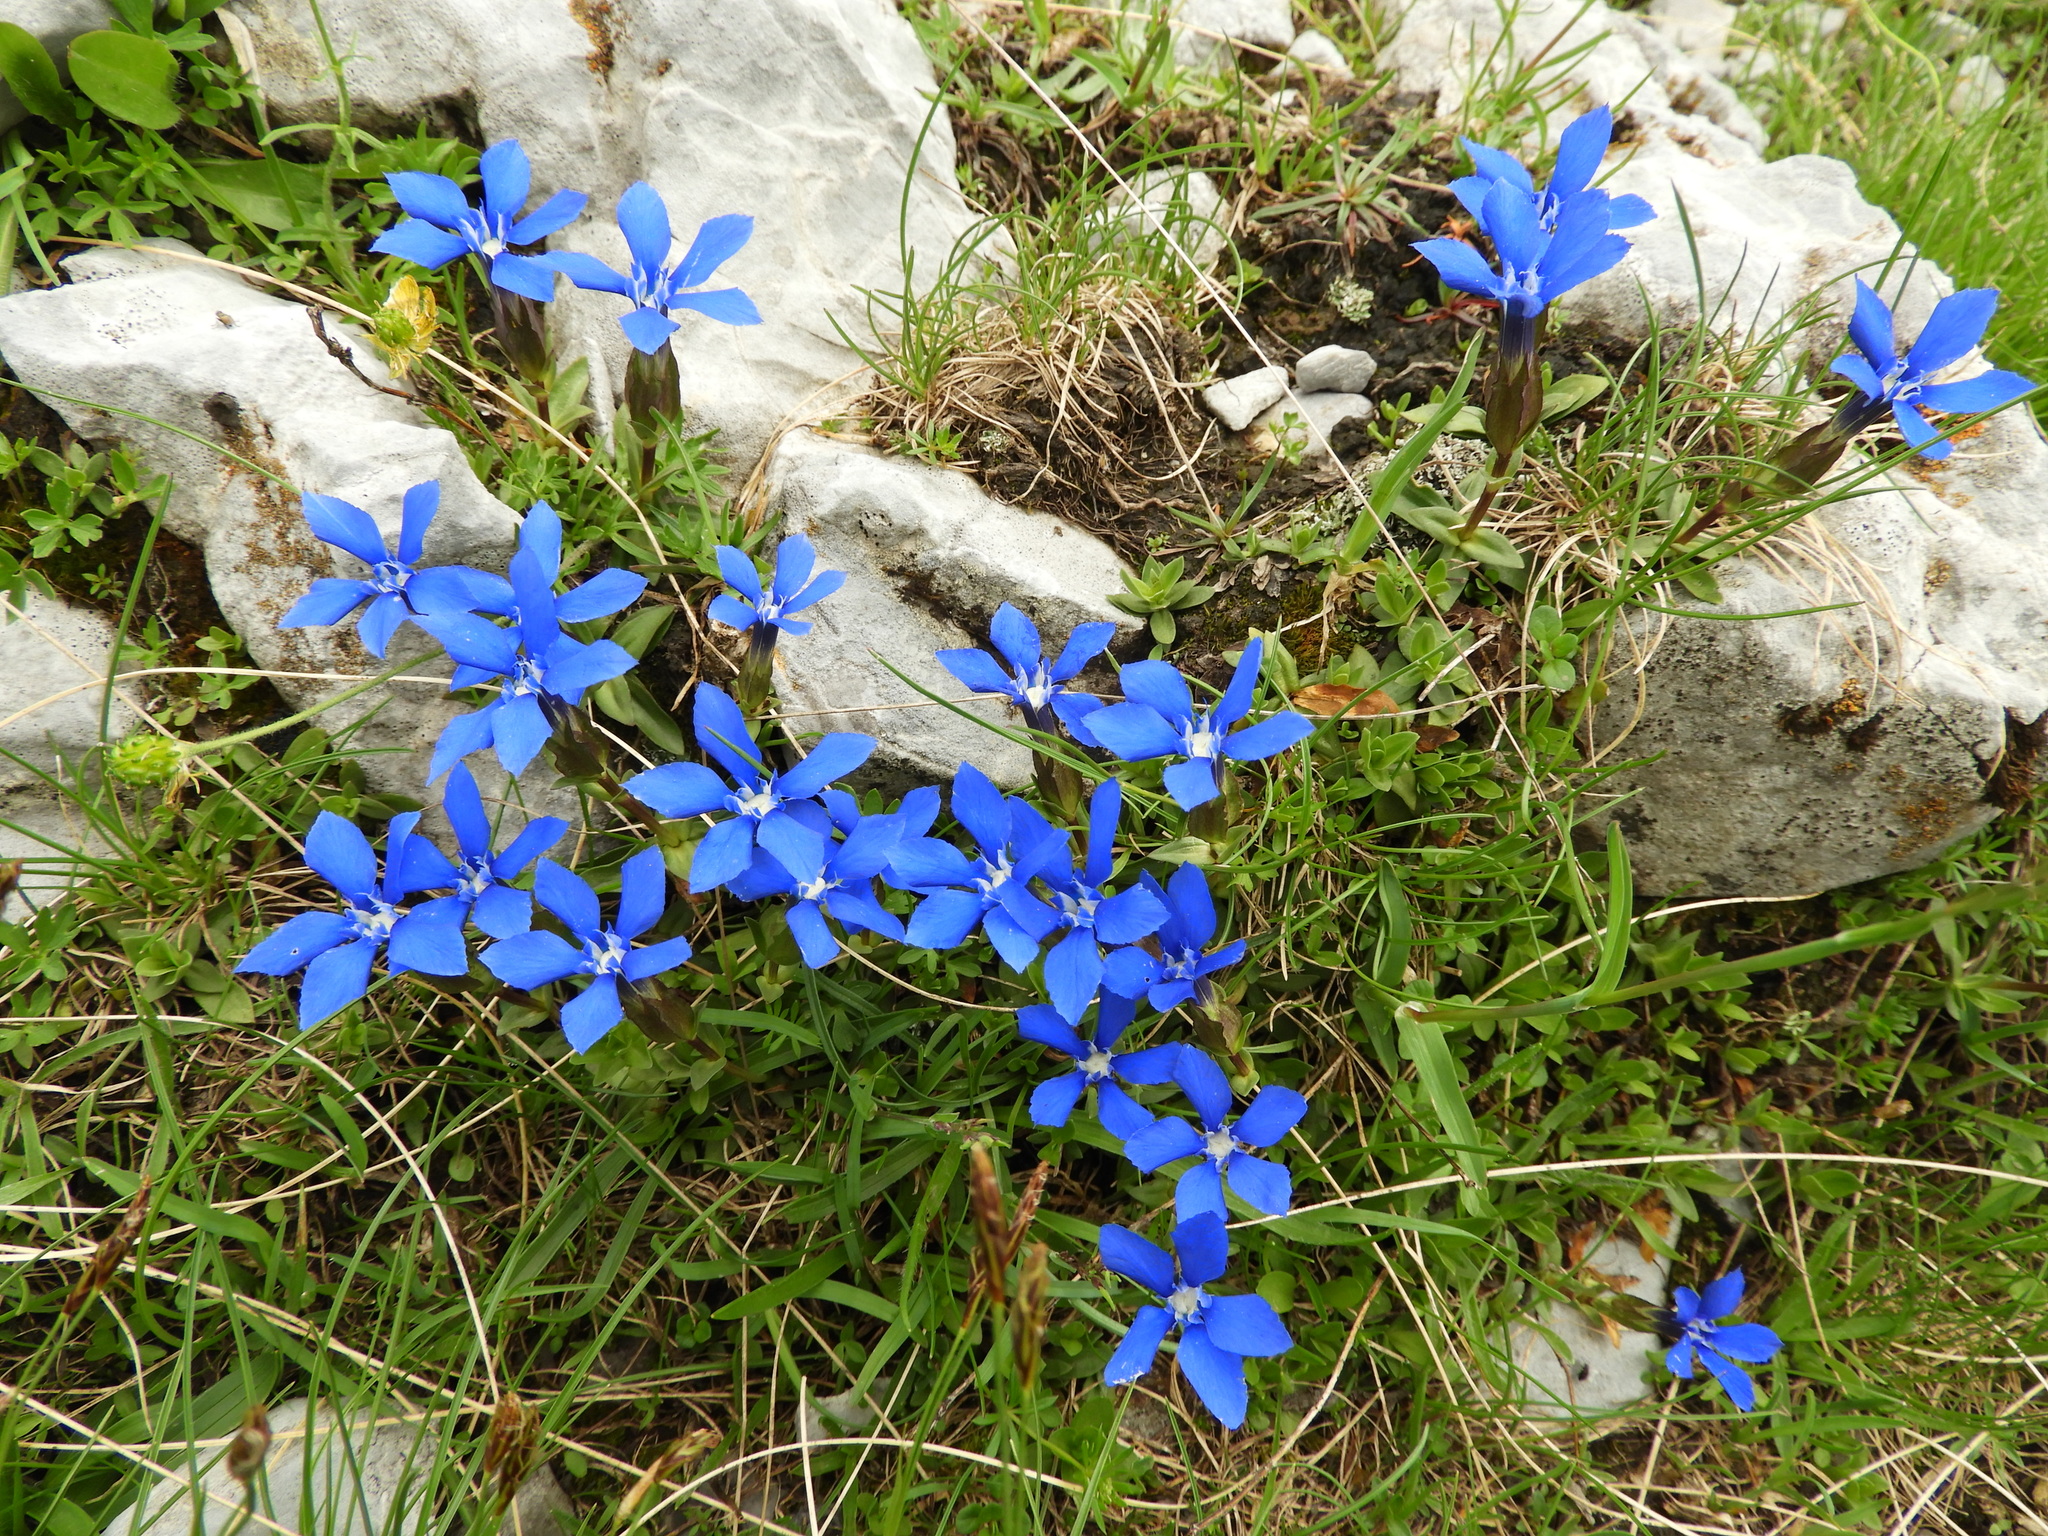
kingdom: Plantae
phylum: Tracheophyta
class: Magnoliopsida
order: Gentianales
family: Gentianaceae
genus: Gentiana
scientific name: Gentiana verna
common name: Spring gentian
